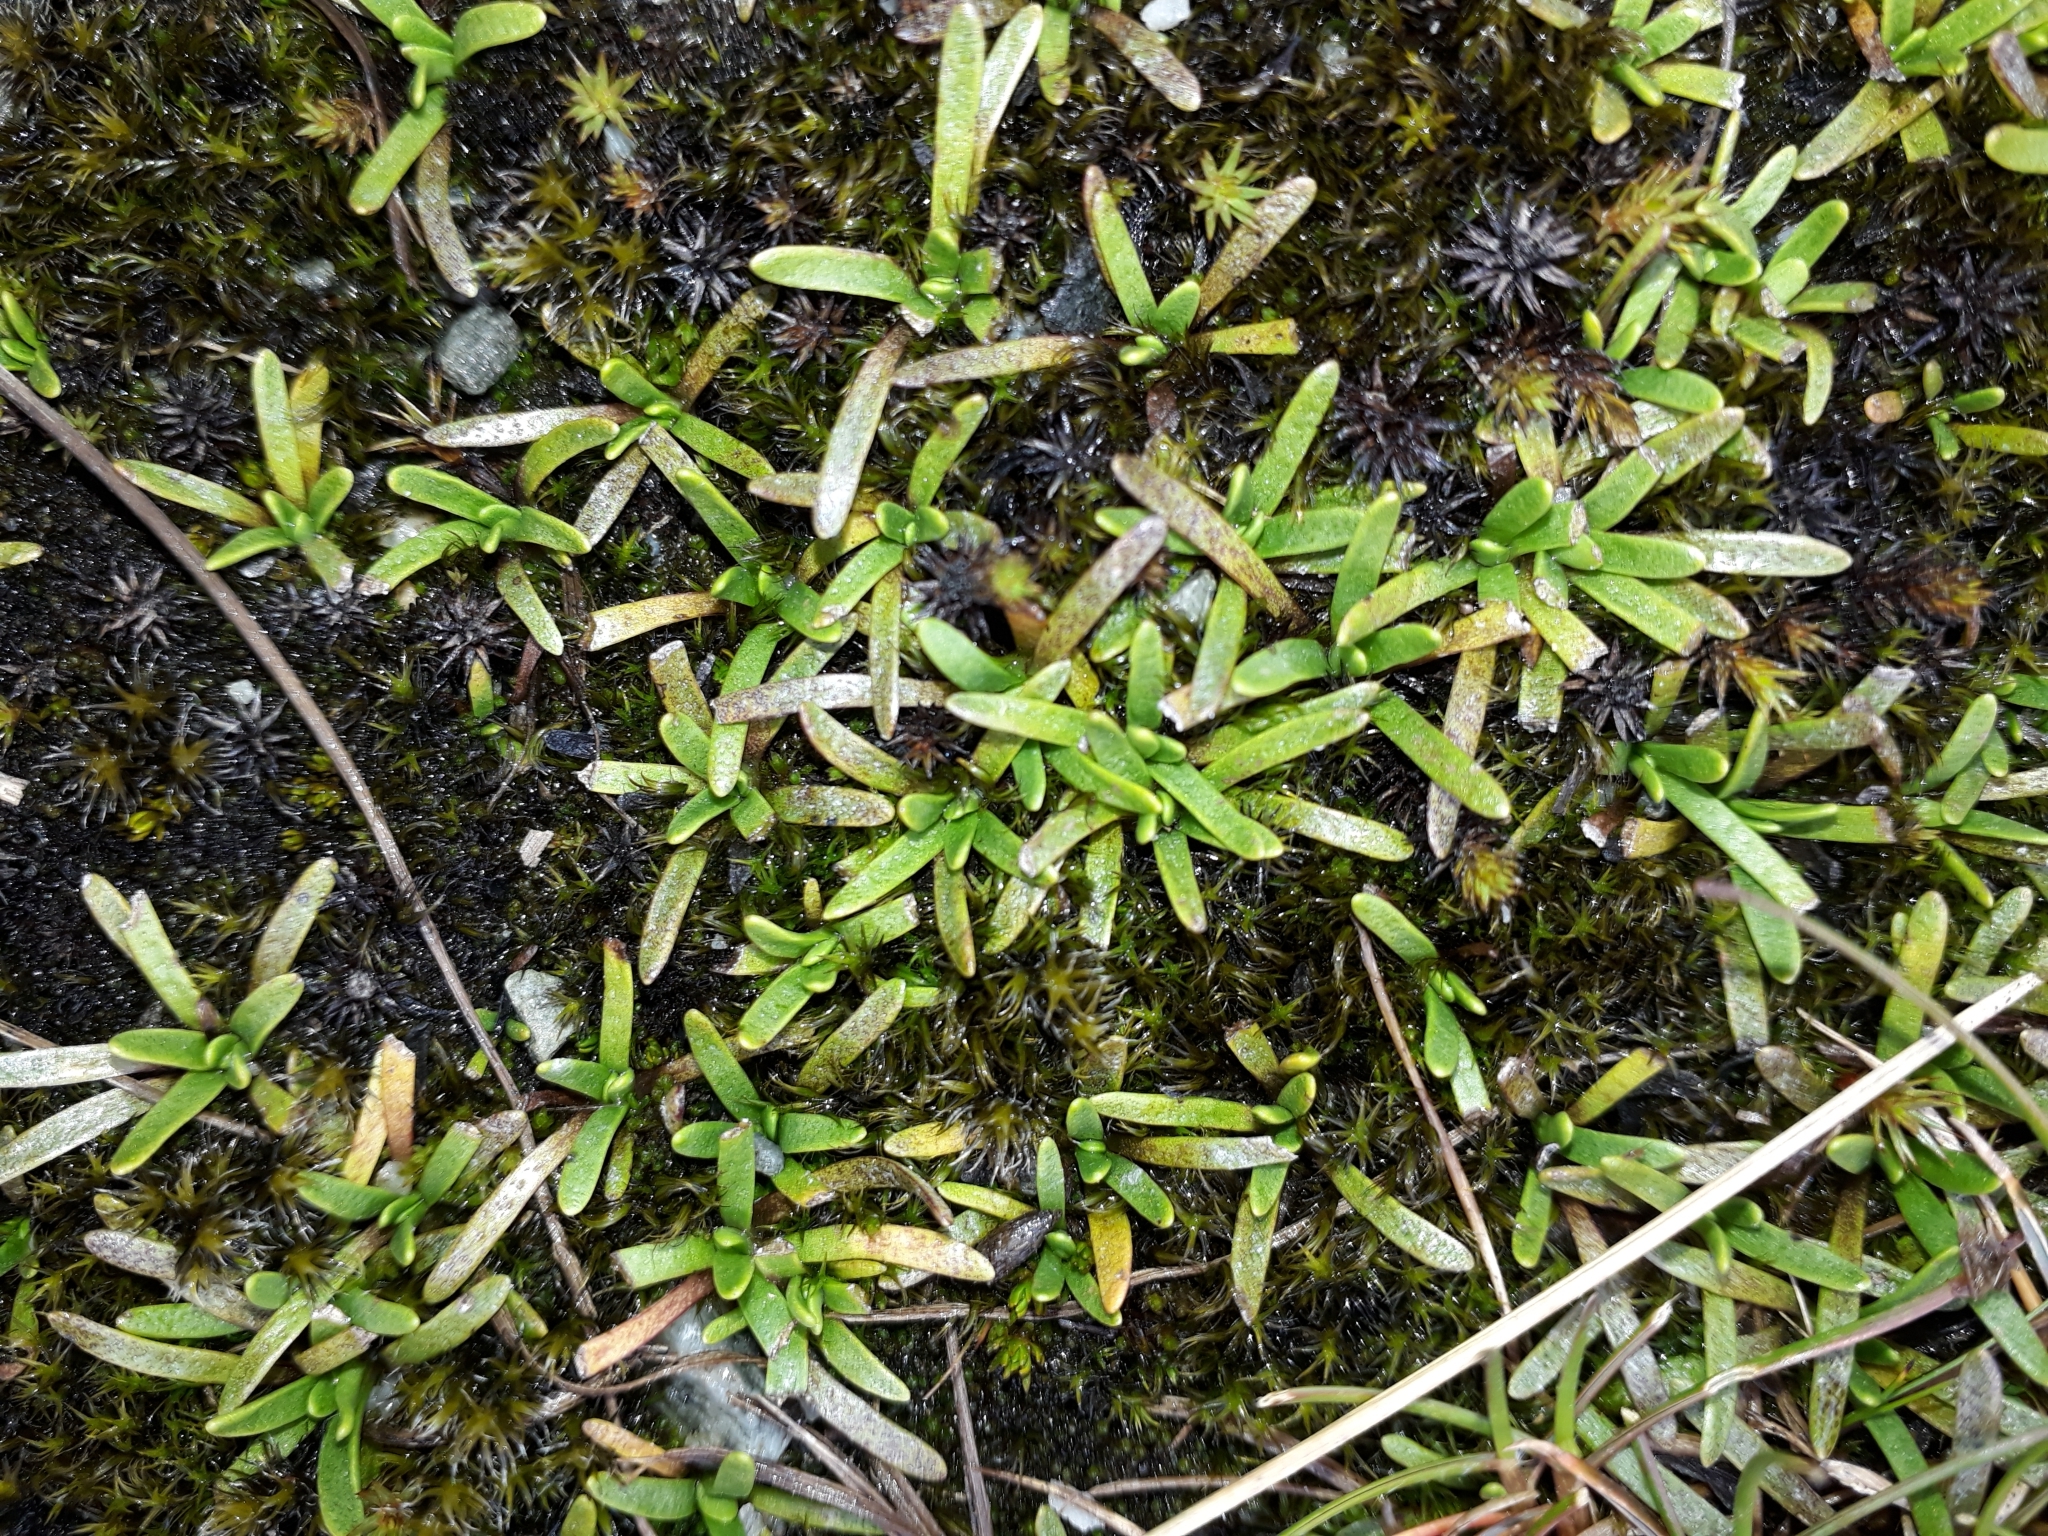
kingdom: Plantae
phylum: Tracheophyta
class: Magnoliopsida
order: Asterales
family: Asteraceae
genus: Abrotanella
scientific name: Abrotanella caespitosa
